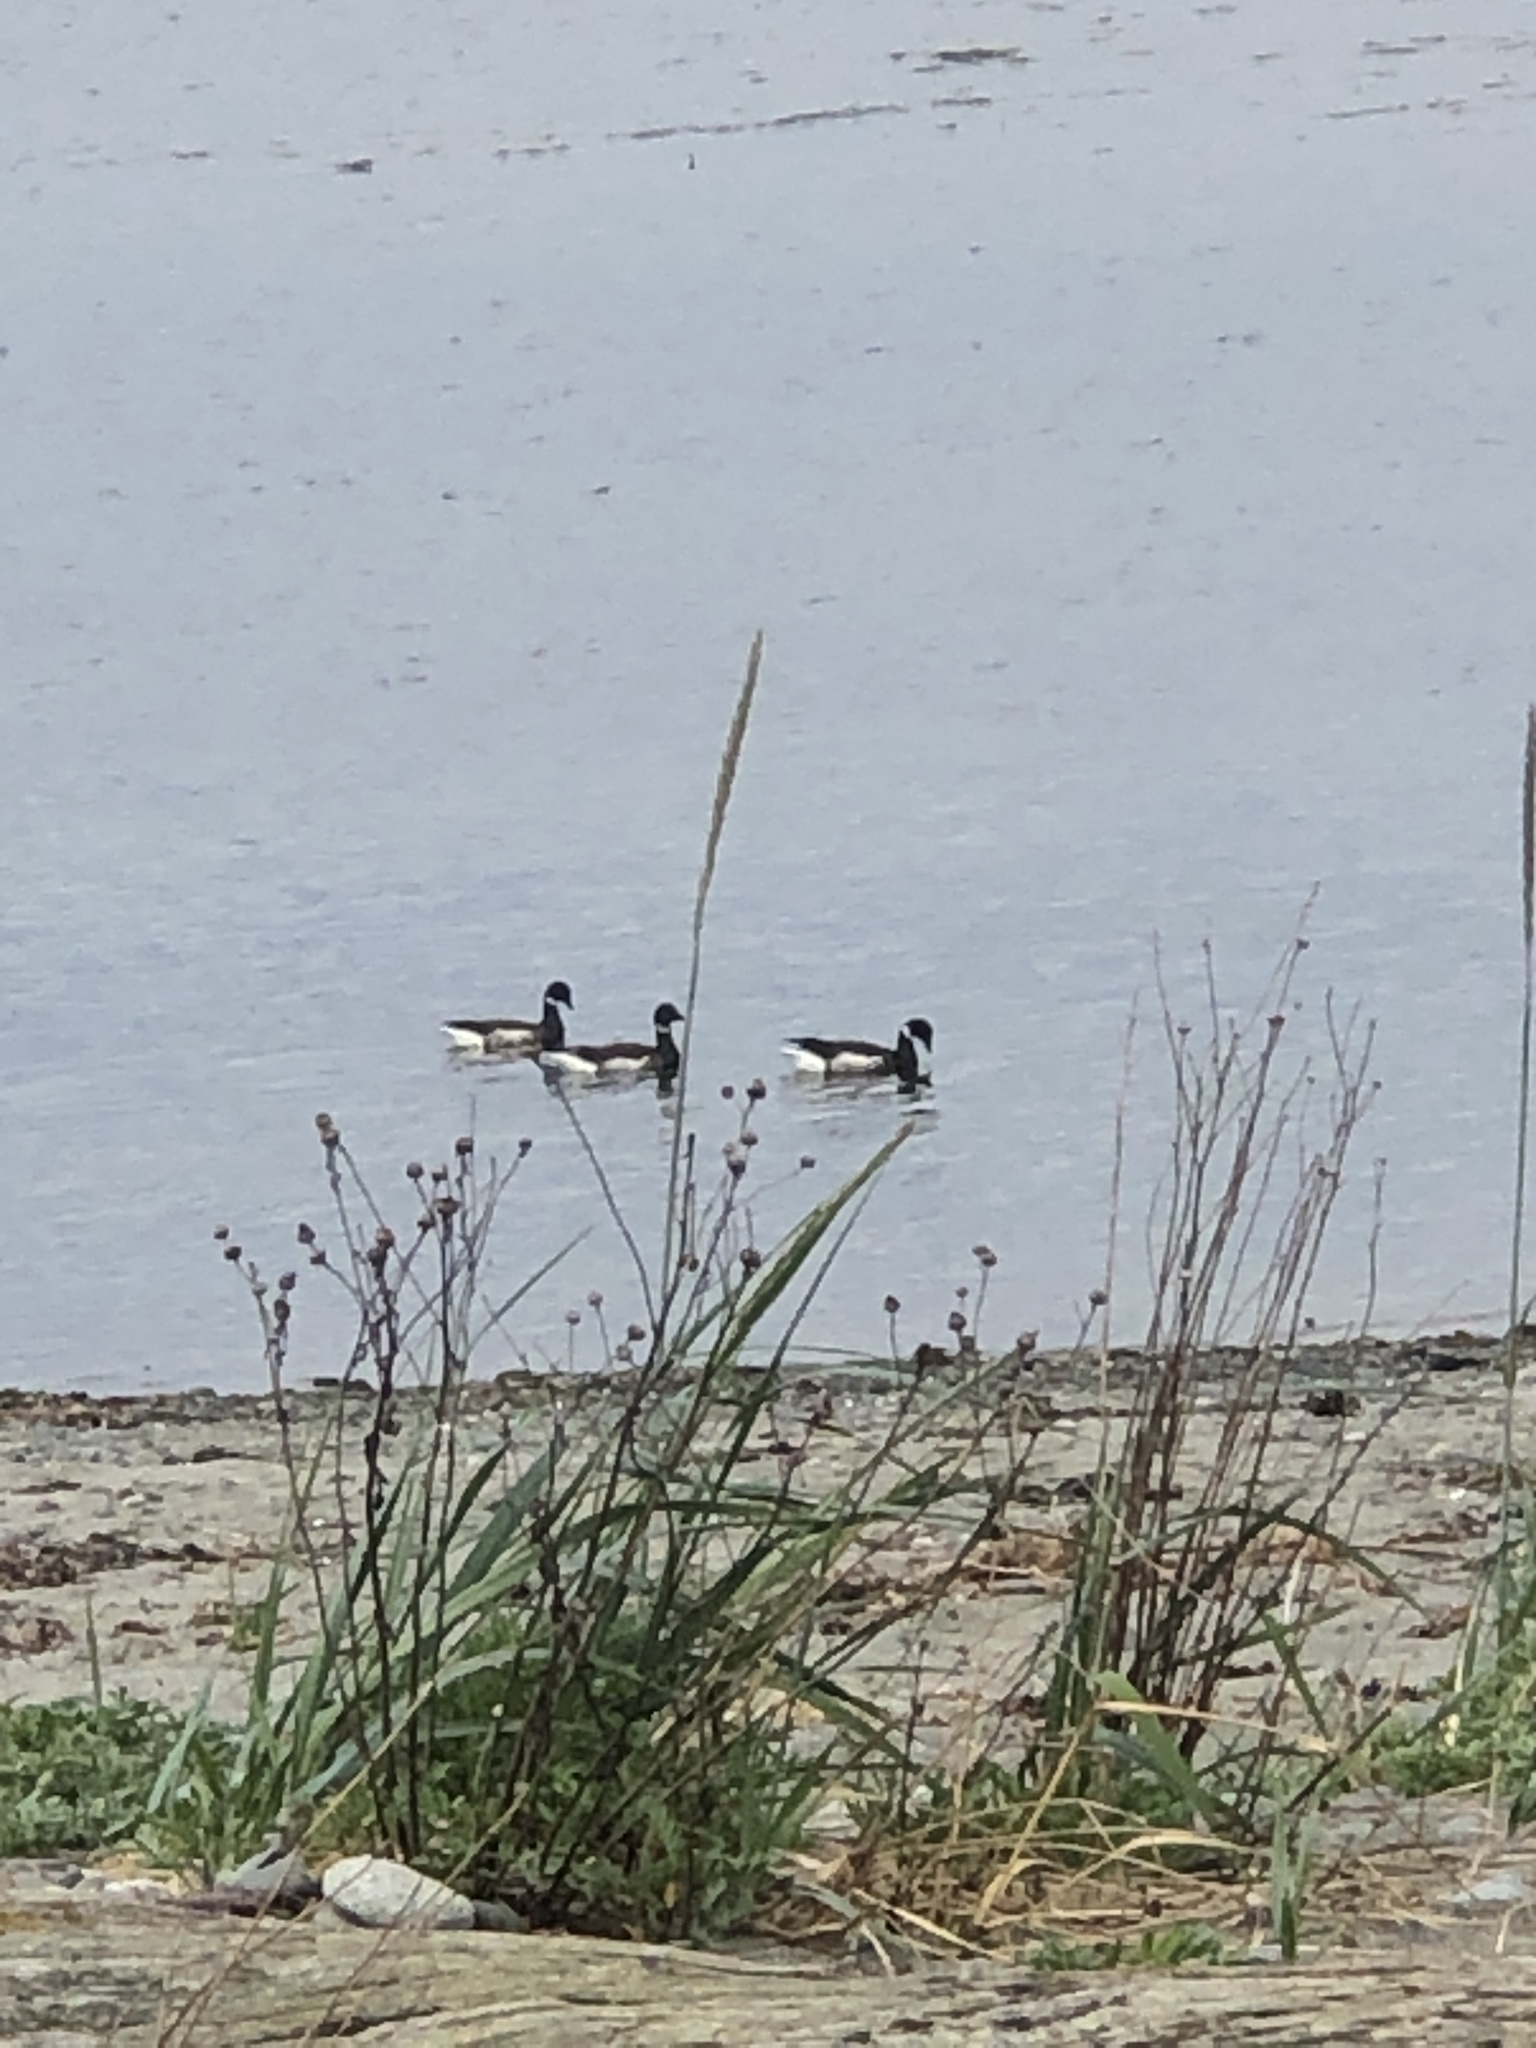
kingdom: Animalia
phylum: Chordata
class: Aves
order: Anseriformes
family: Anatidae
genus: Branta
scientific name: Branta bernicla
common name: Brant goose
